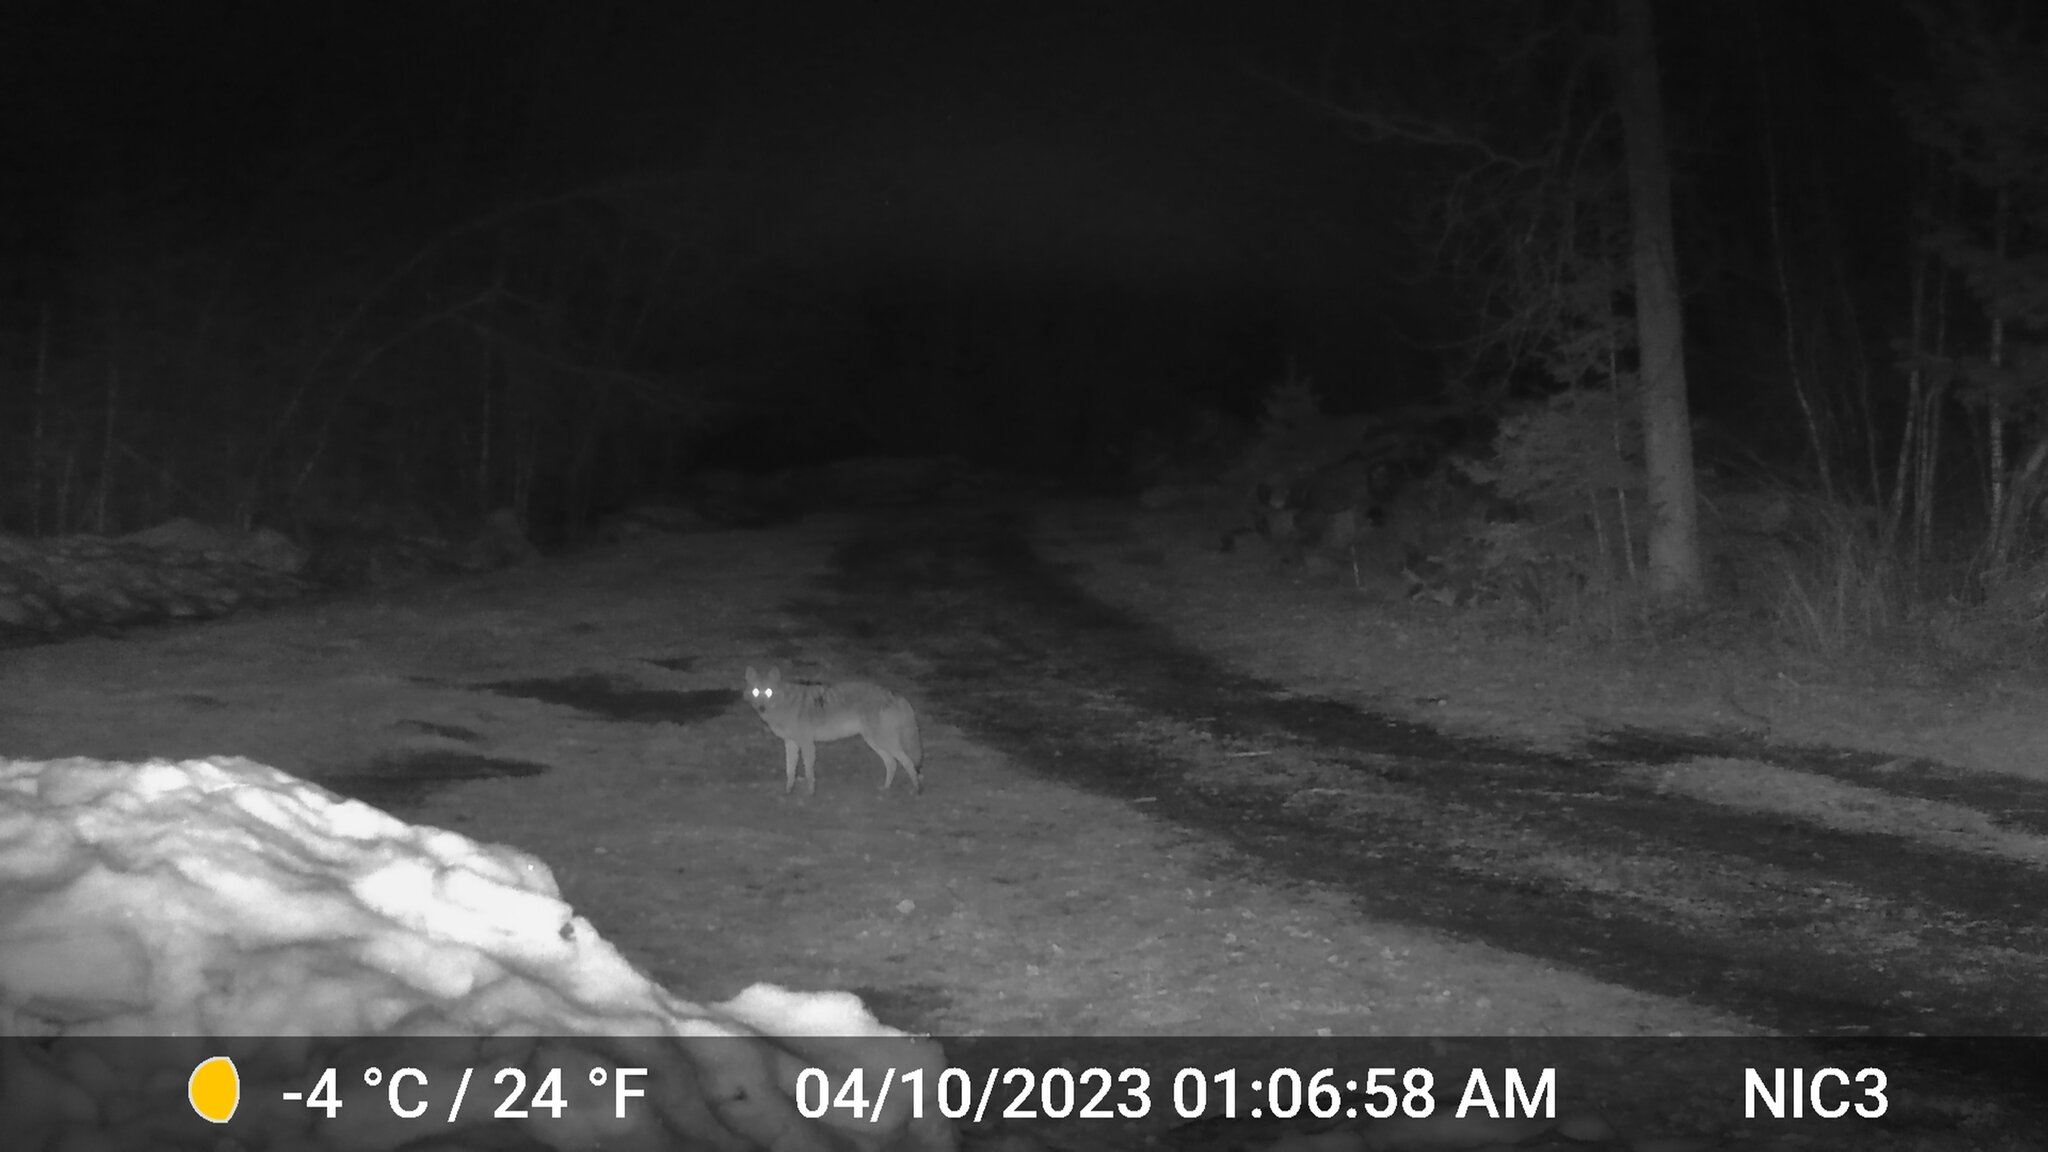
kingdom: Animalia
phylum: Chordata
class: Mammalia
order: Carnivora
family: Canidae
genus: Canis
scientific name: Canis latrans
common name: Coyote
